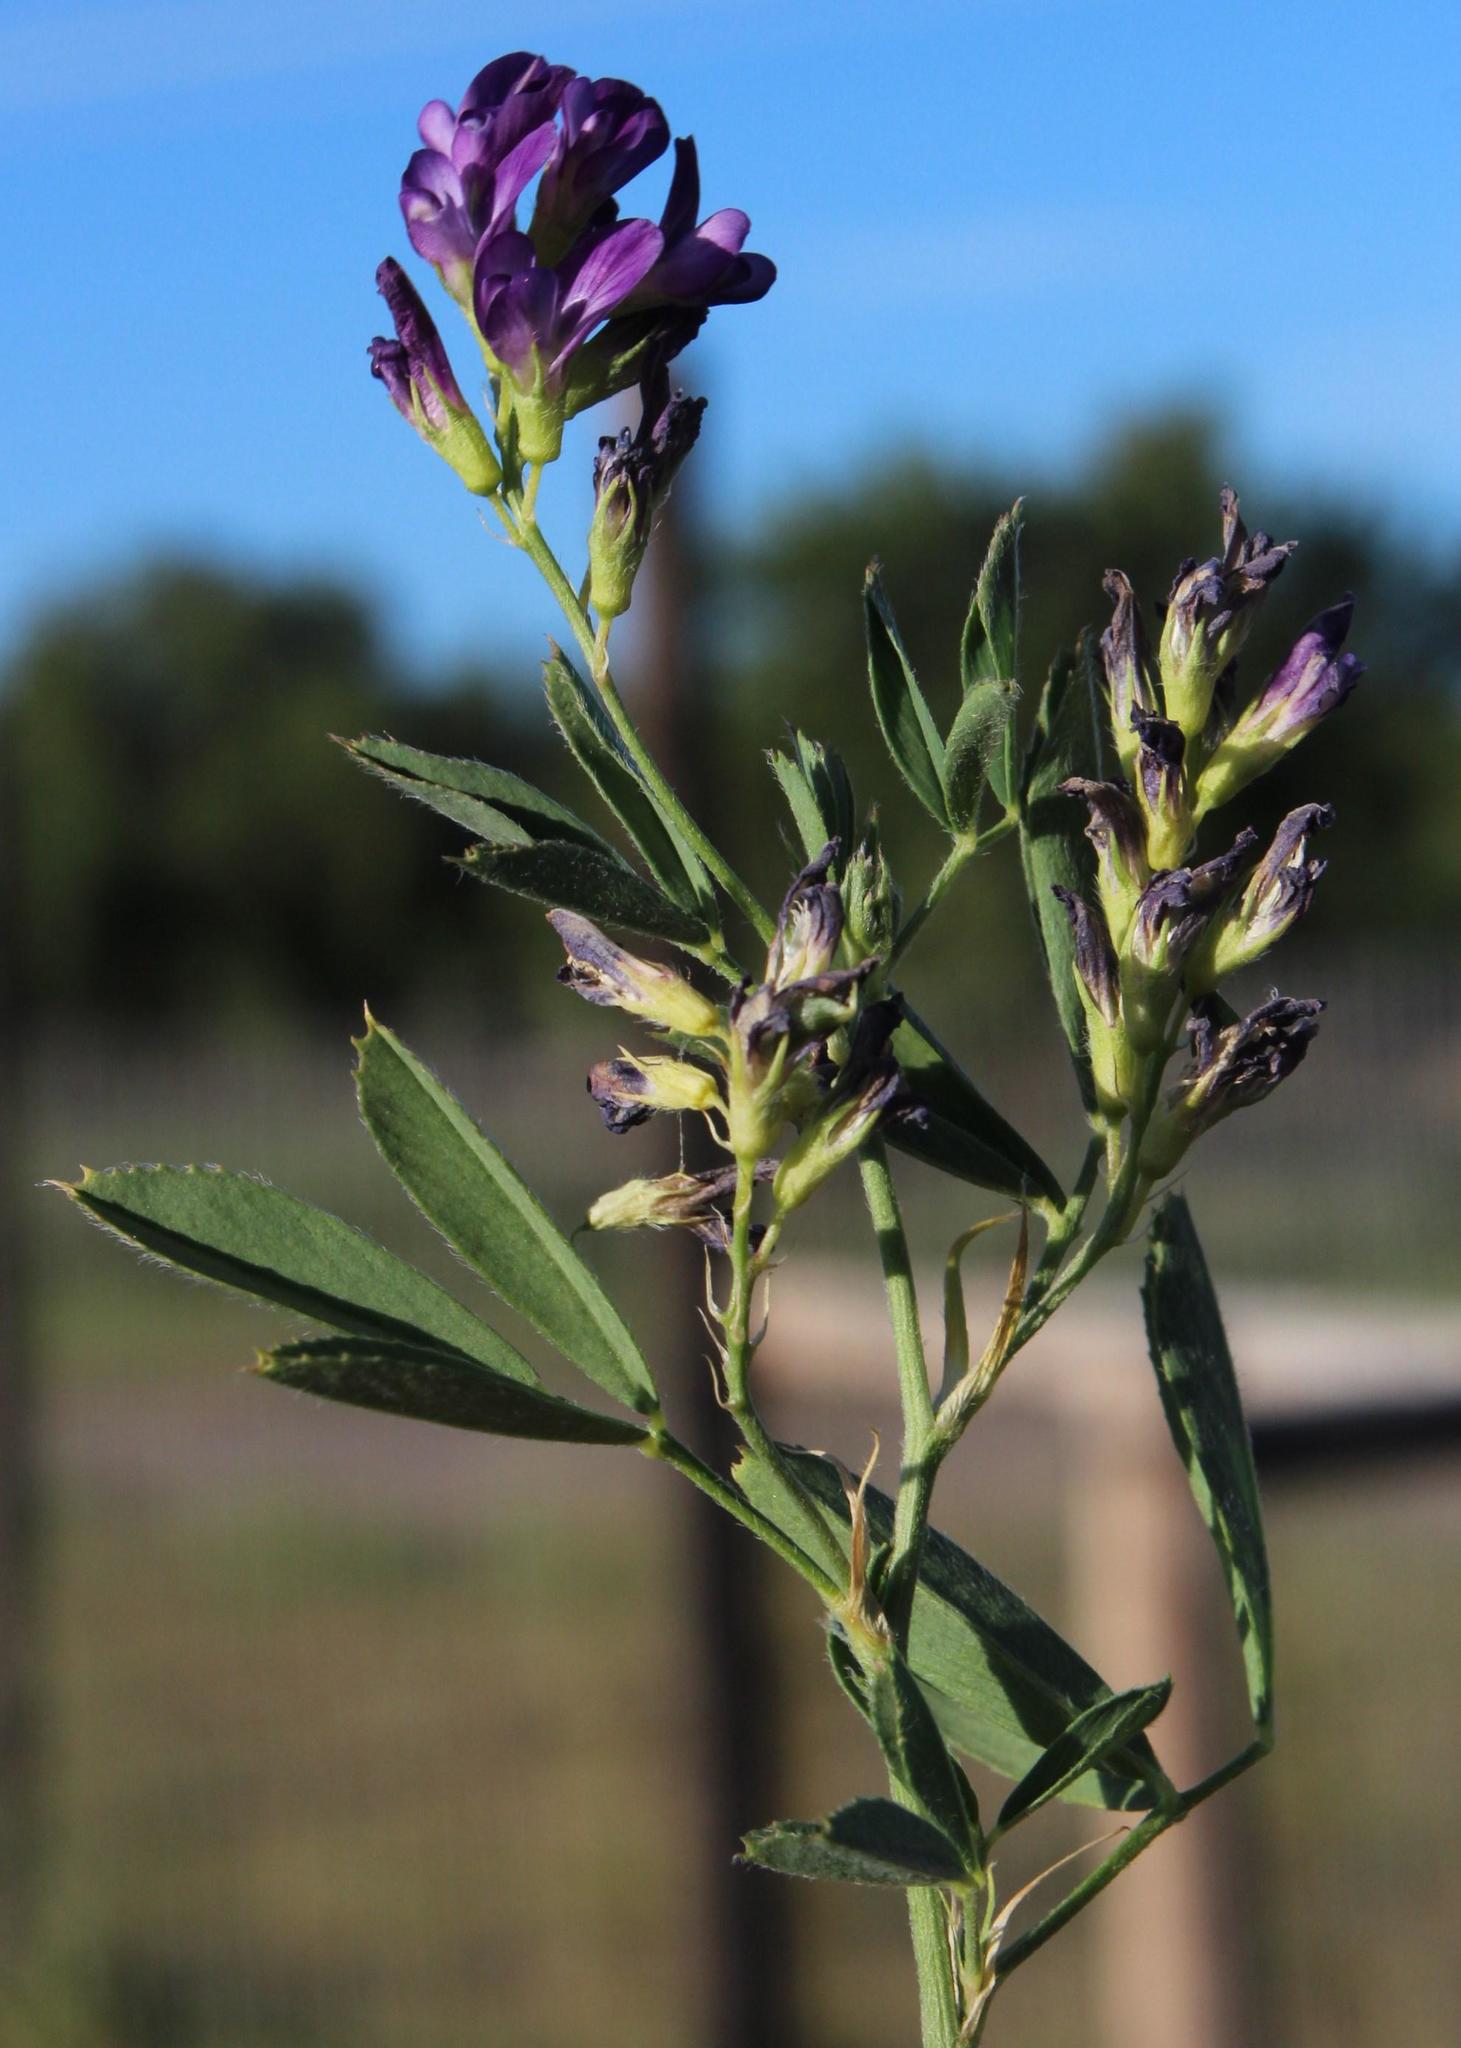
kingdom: Plantae
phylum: Tracheophyta
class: Magnoliopsida
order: Fabales
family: Fabaceae
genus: Medicago
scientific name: Medicago sativa
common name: Alfalfa
